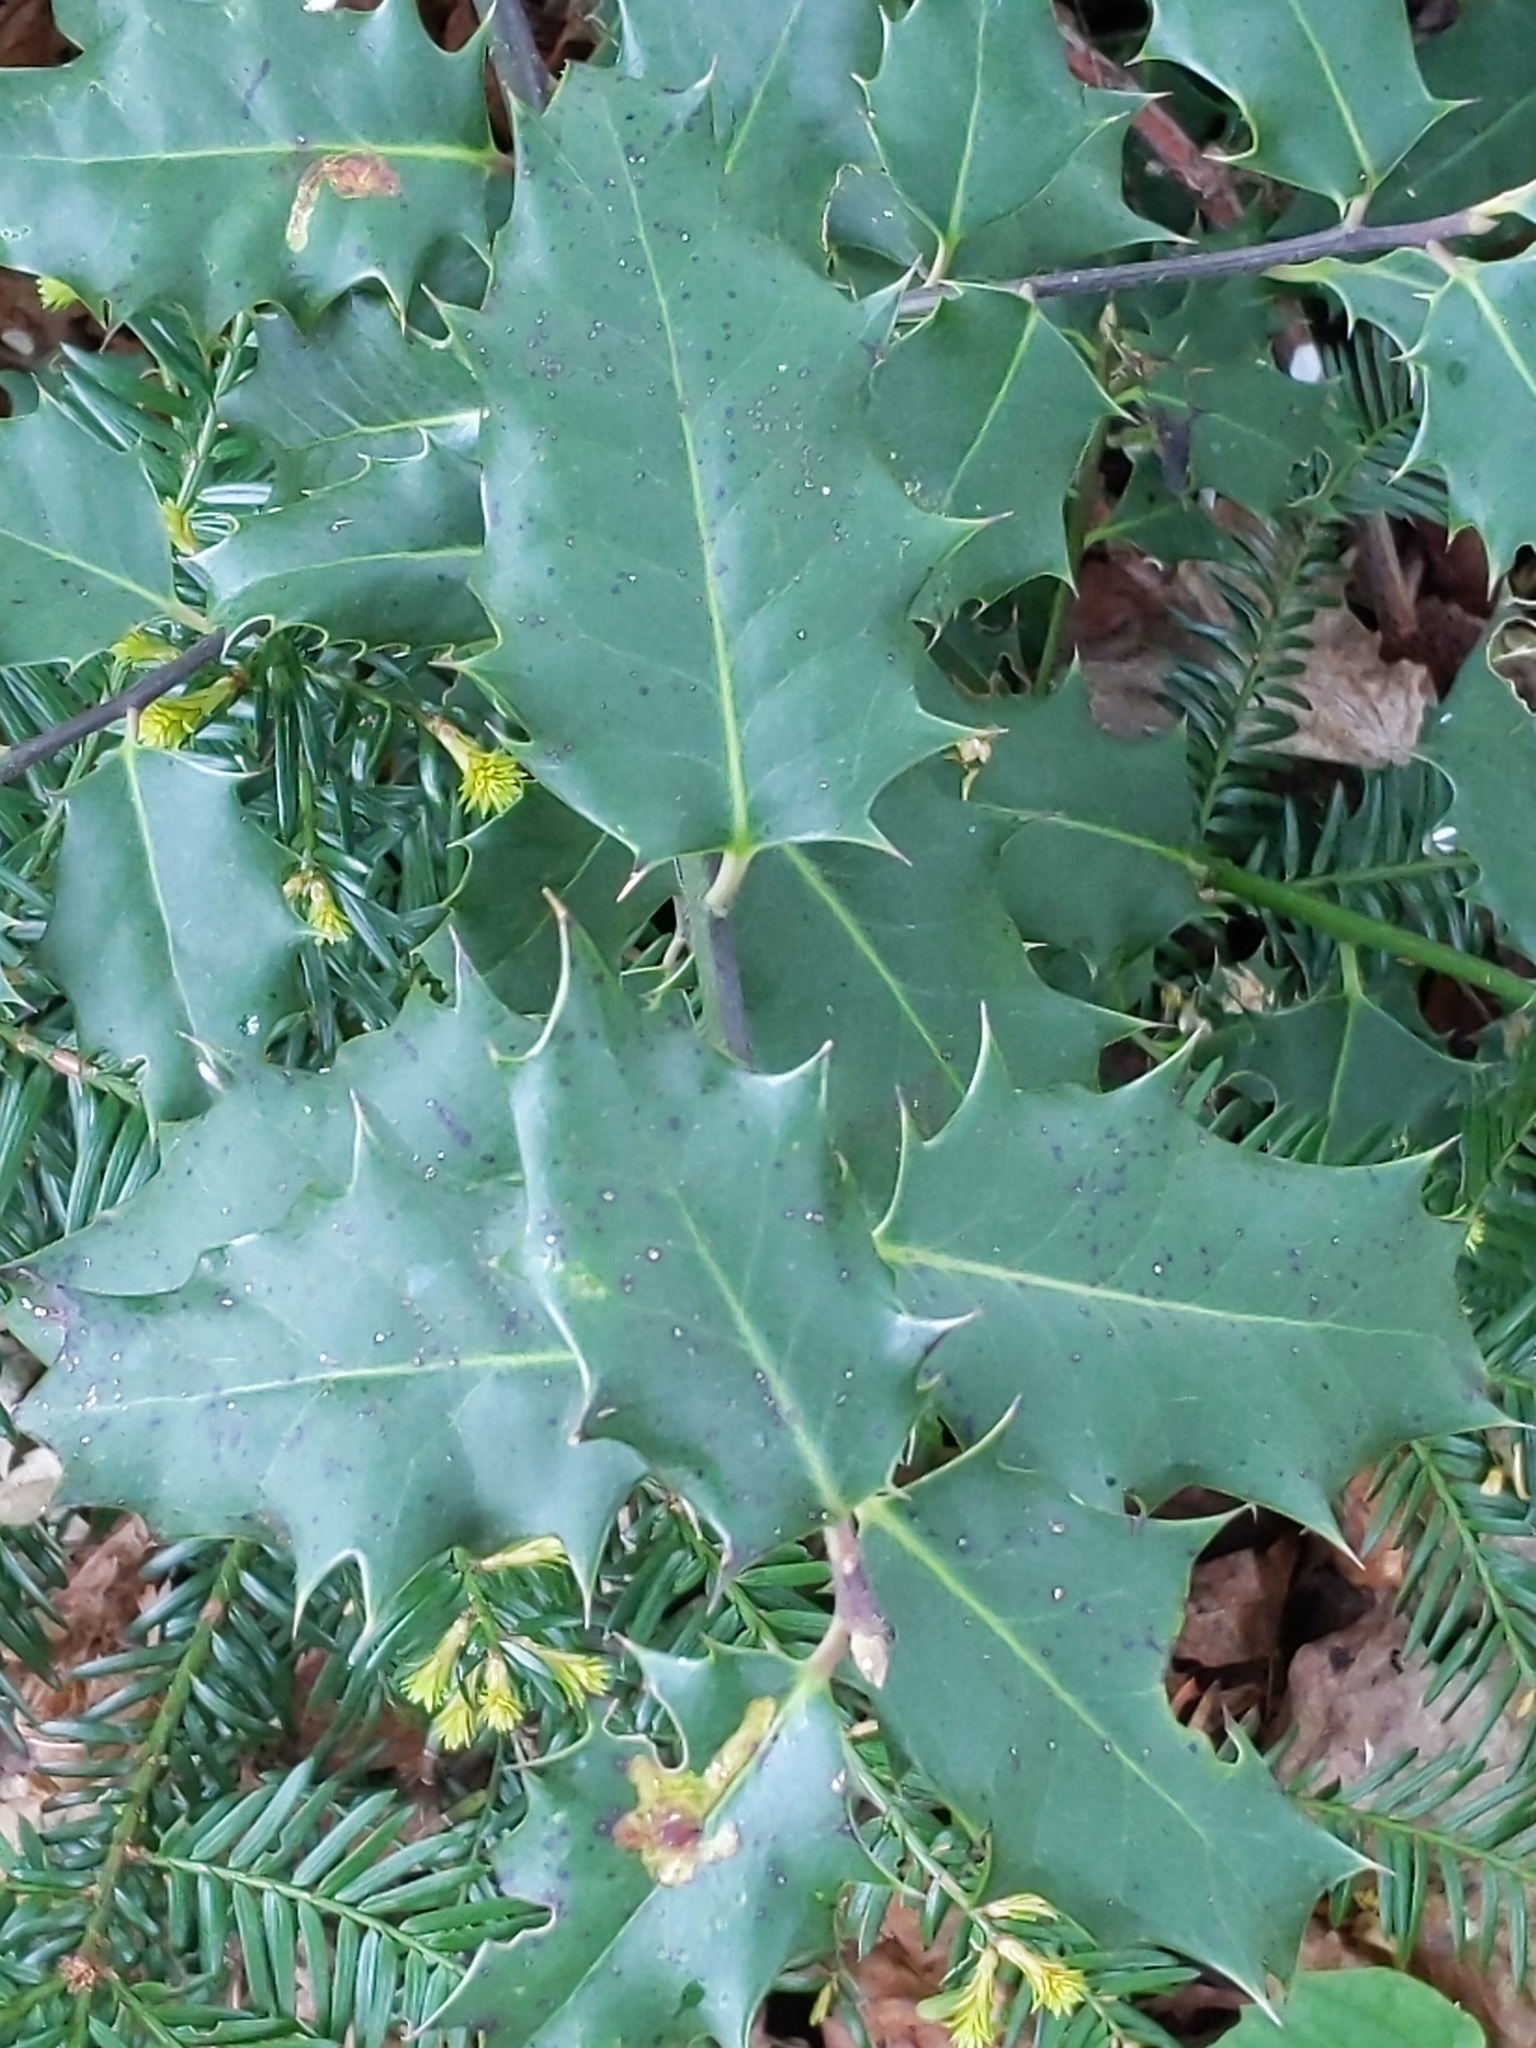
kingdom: Plantae
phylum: Tracheophyta
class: Magnoliopsida
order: Aquifoliales
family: Aquifoliaceae
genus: Ilex
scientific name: Ilex aquifolium
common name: English holly
